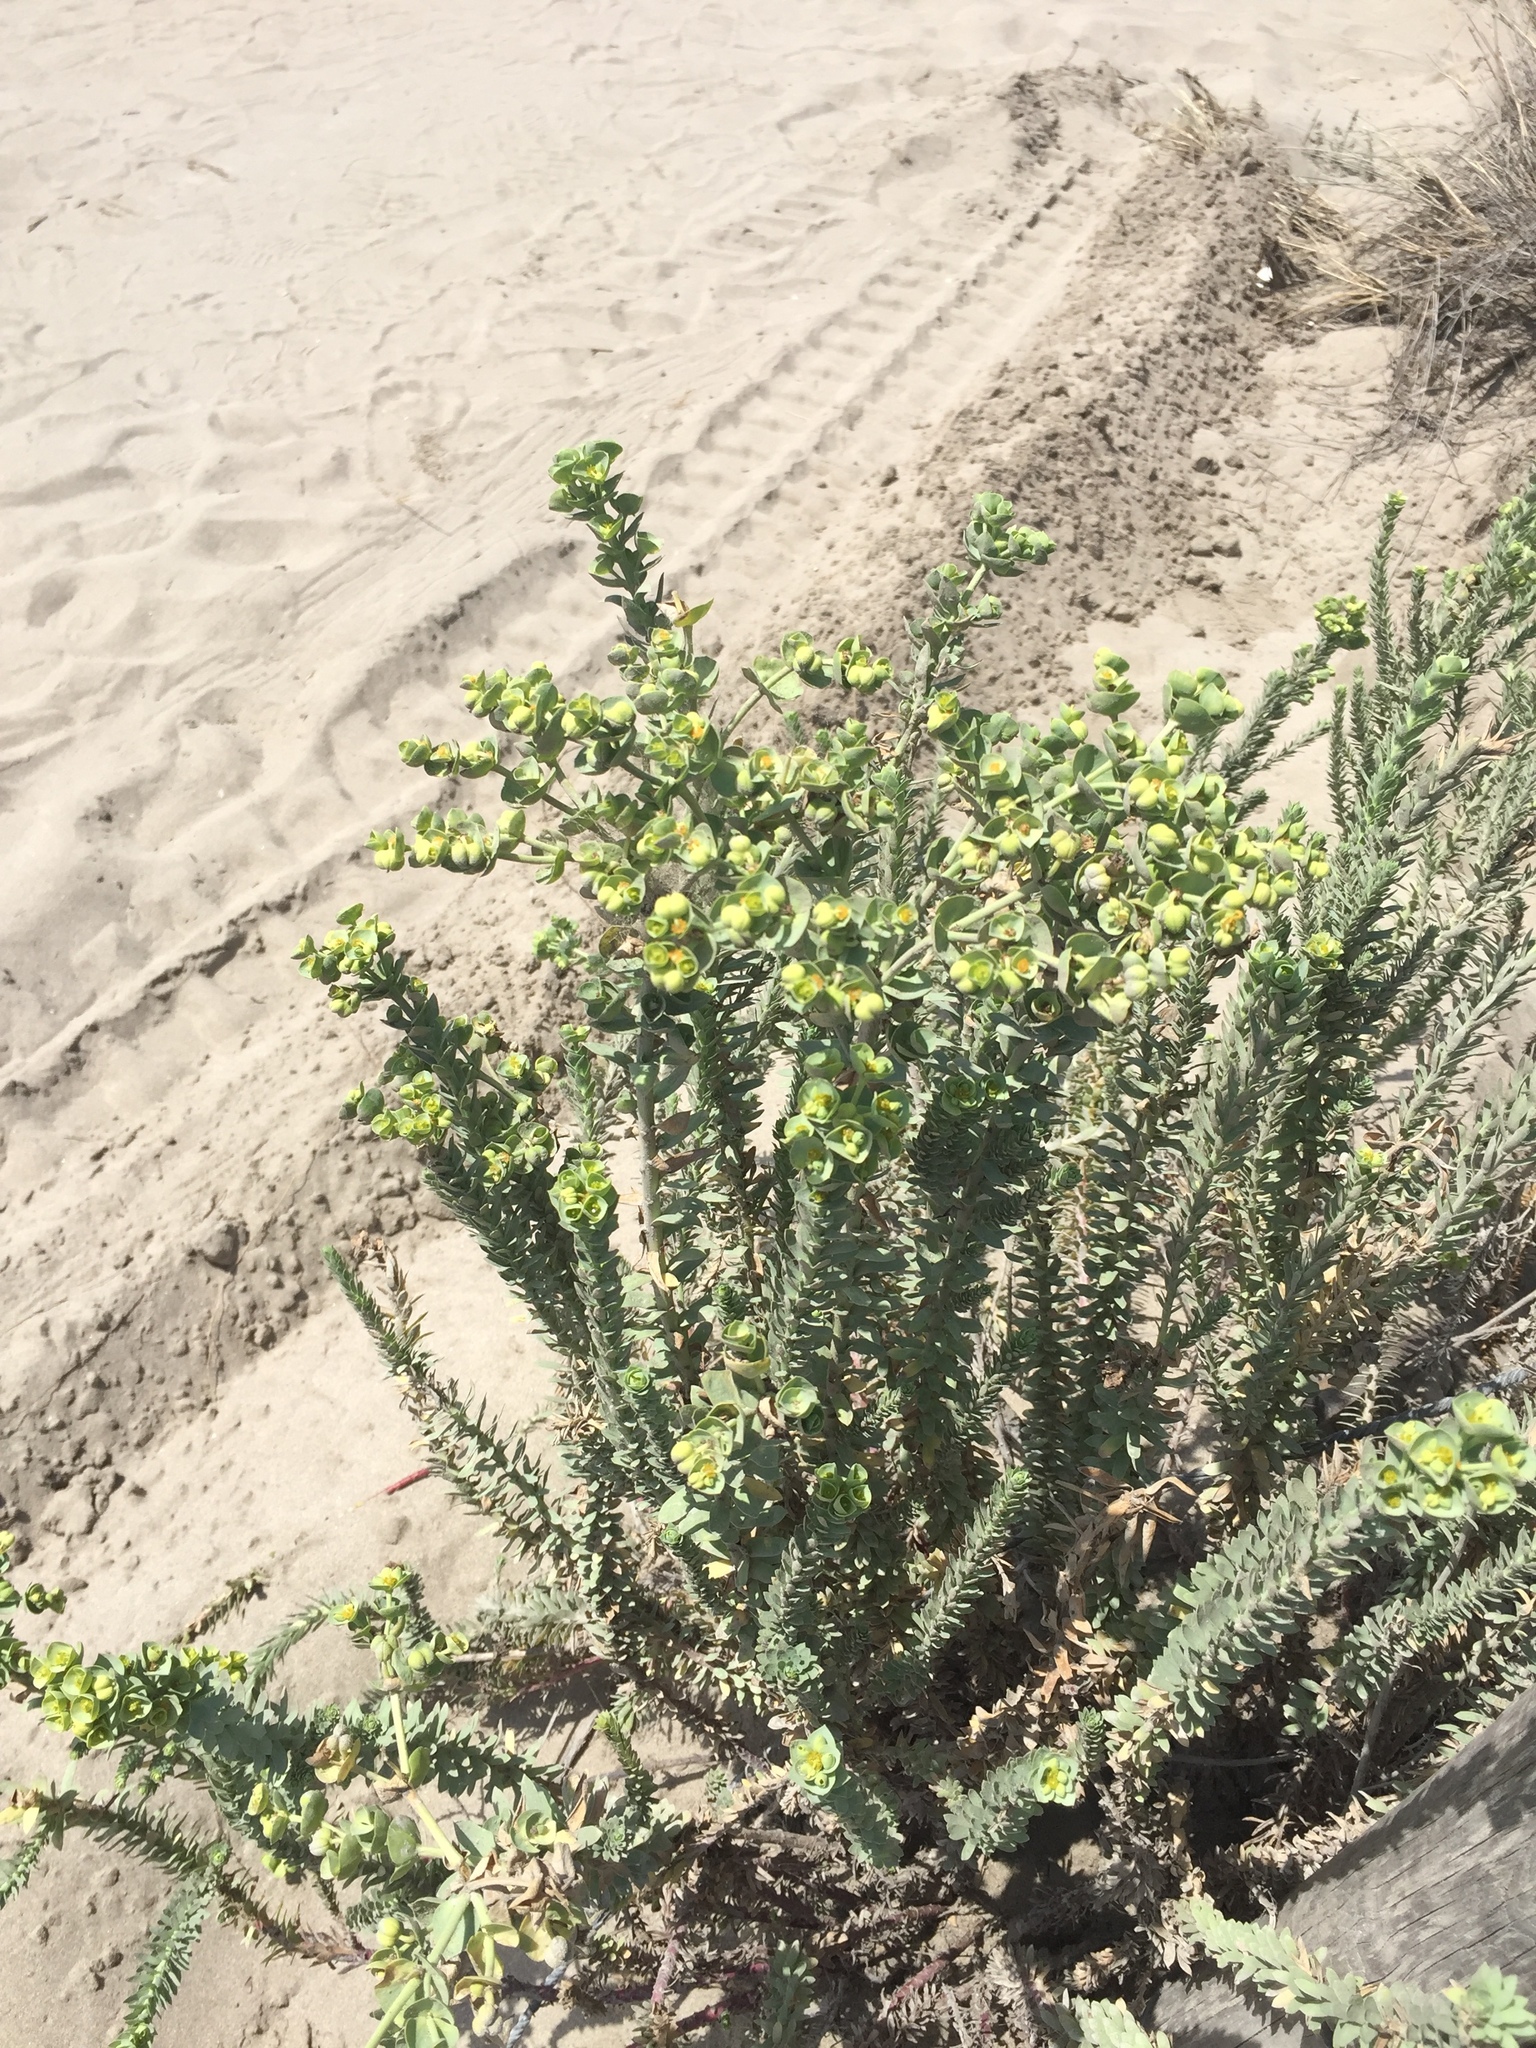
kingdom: Plantae
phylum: Tracheophyta
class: Magnoliopsida
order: Malpighiales
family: Euphorbiaceae
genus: Euphorbia
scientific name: Euphorbia paralias
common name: Sea spurge
